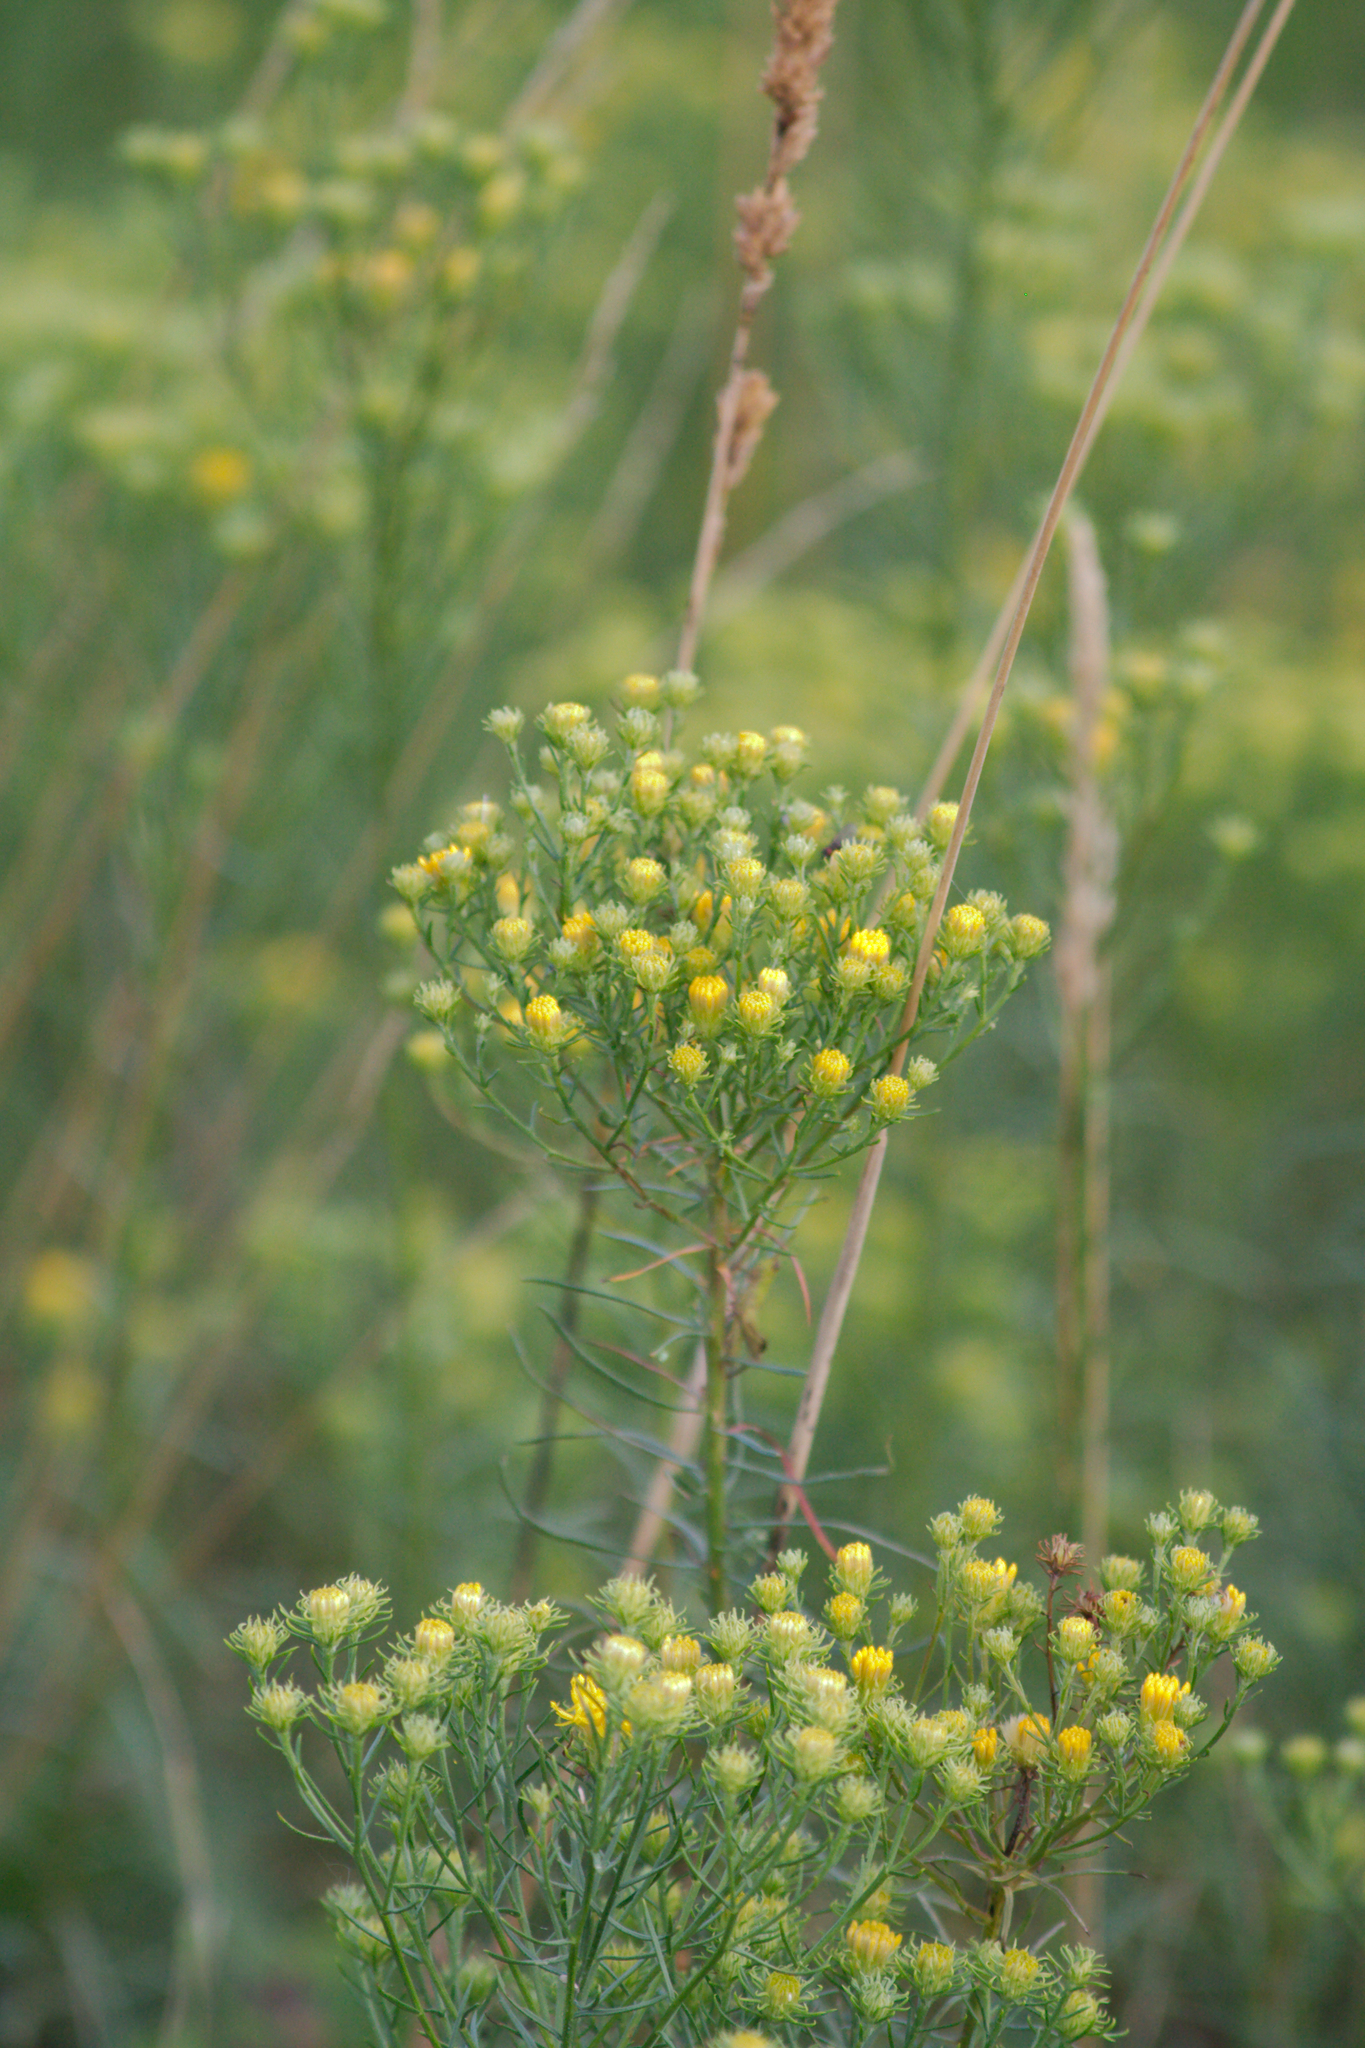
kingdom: Plantae
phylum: Tracheophyta
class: Magnoliopsida
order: Asterales
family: Asteraceae
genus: Galatella
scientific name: Galatella linosyris
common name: Goldilocks aster
